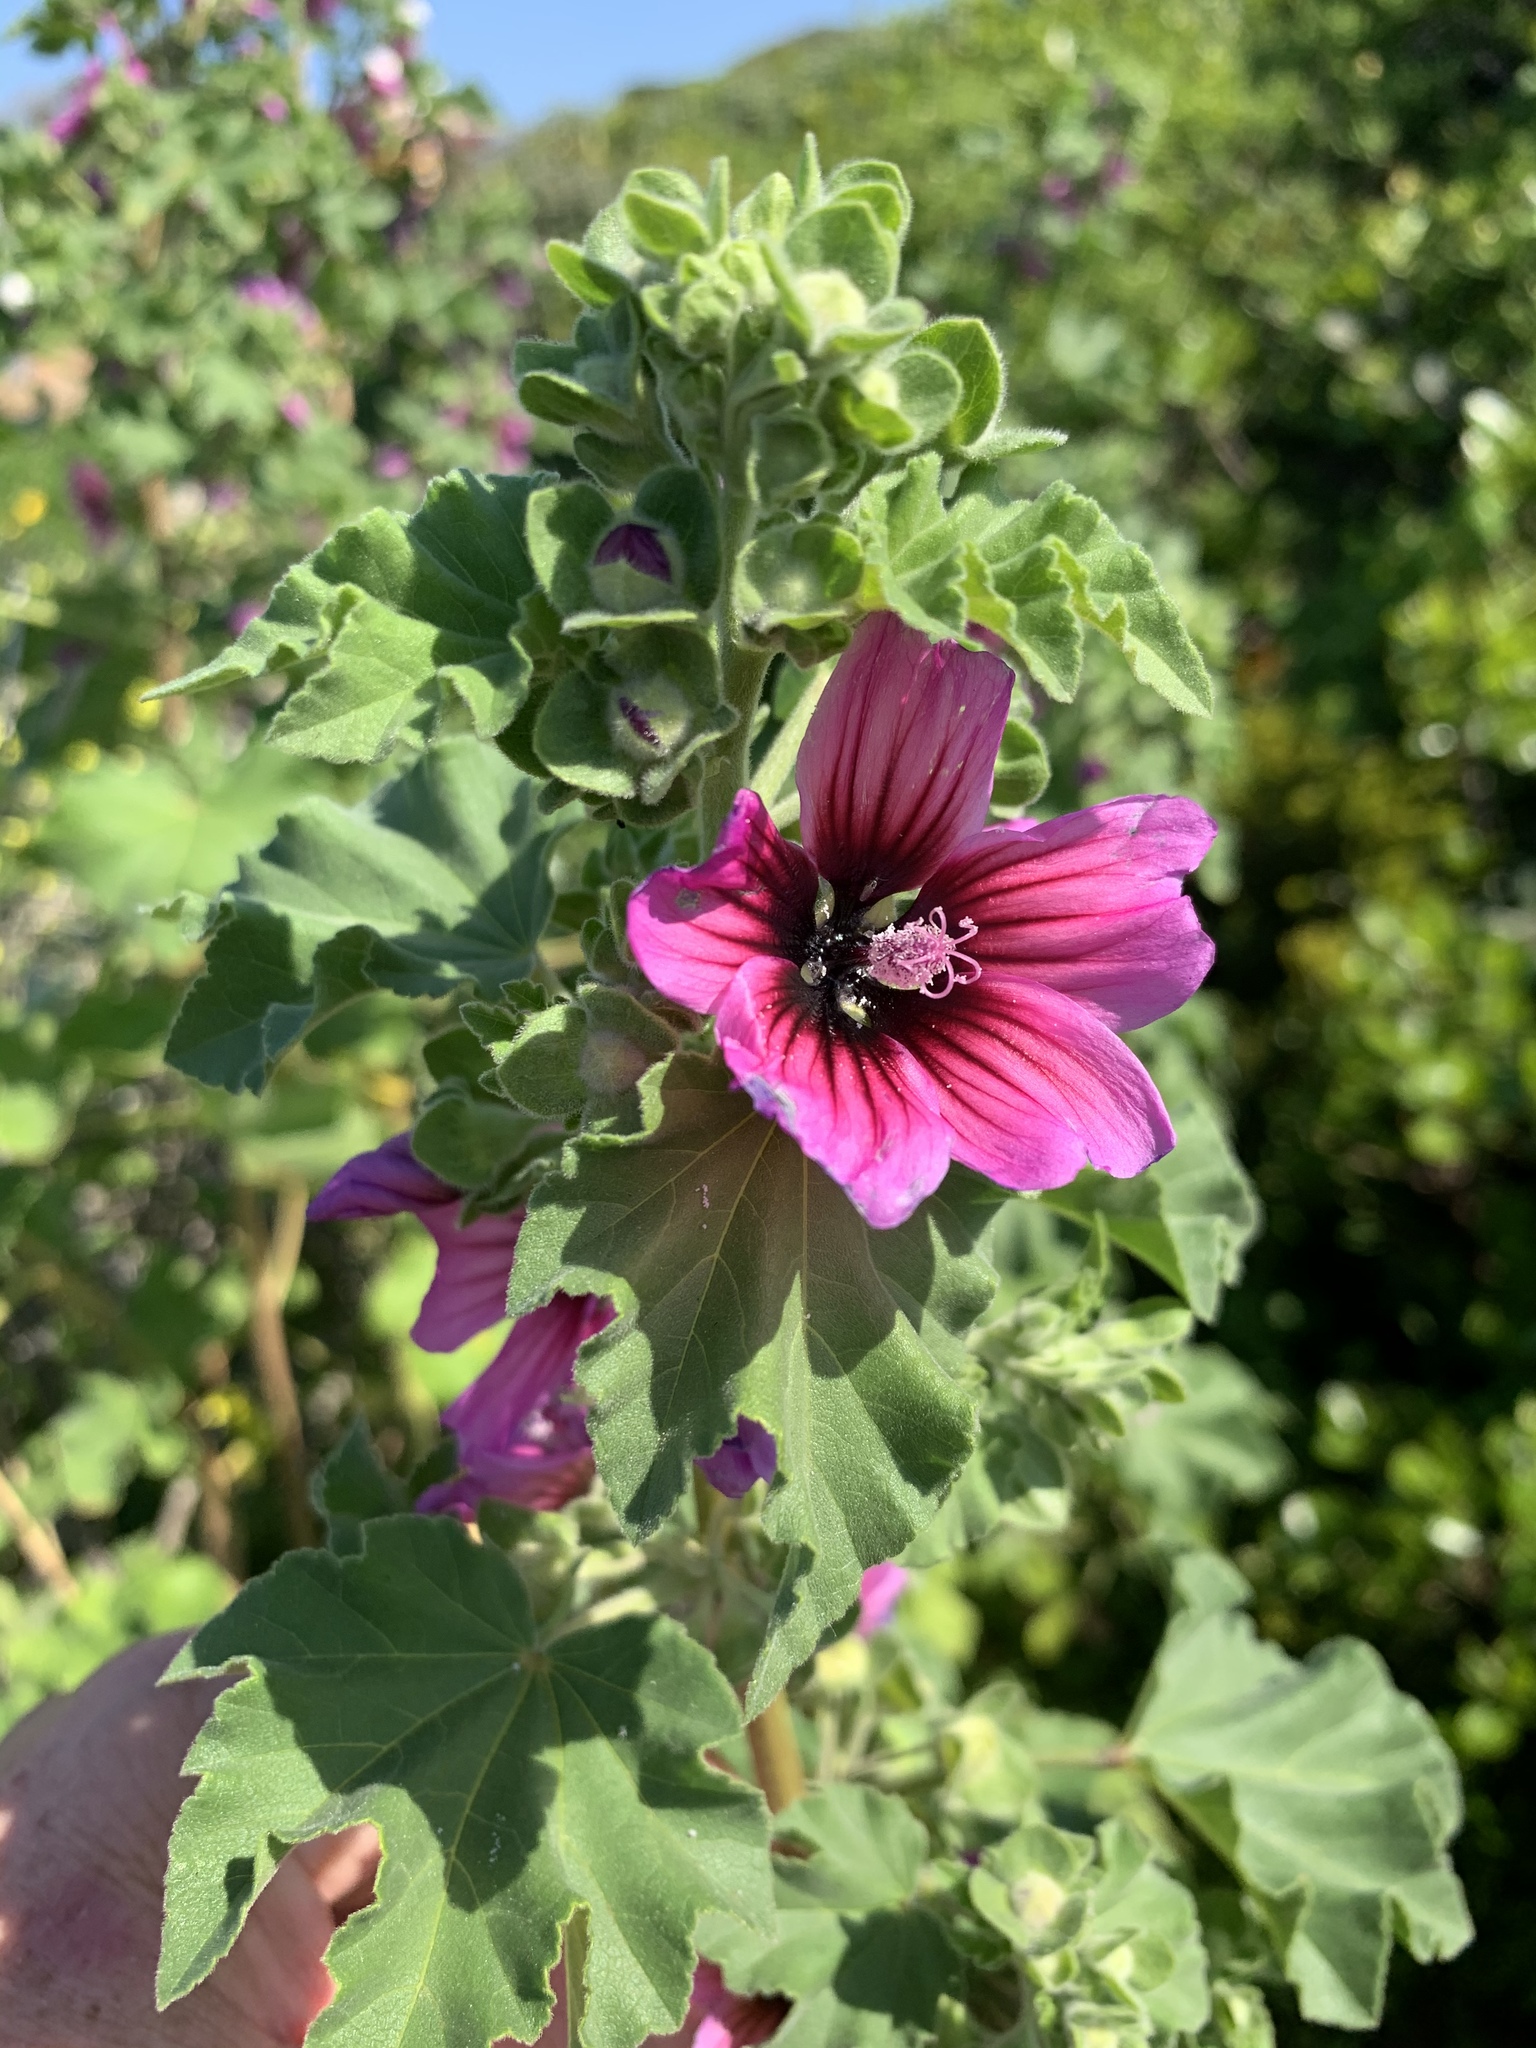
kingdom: Plantae
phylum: Tracheophyta
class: Magnoliopsida
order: Malvales
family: Malvaceae
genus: Malva
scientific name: Malva arborea
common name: Tree mallow
